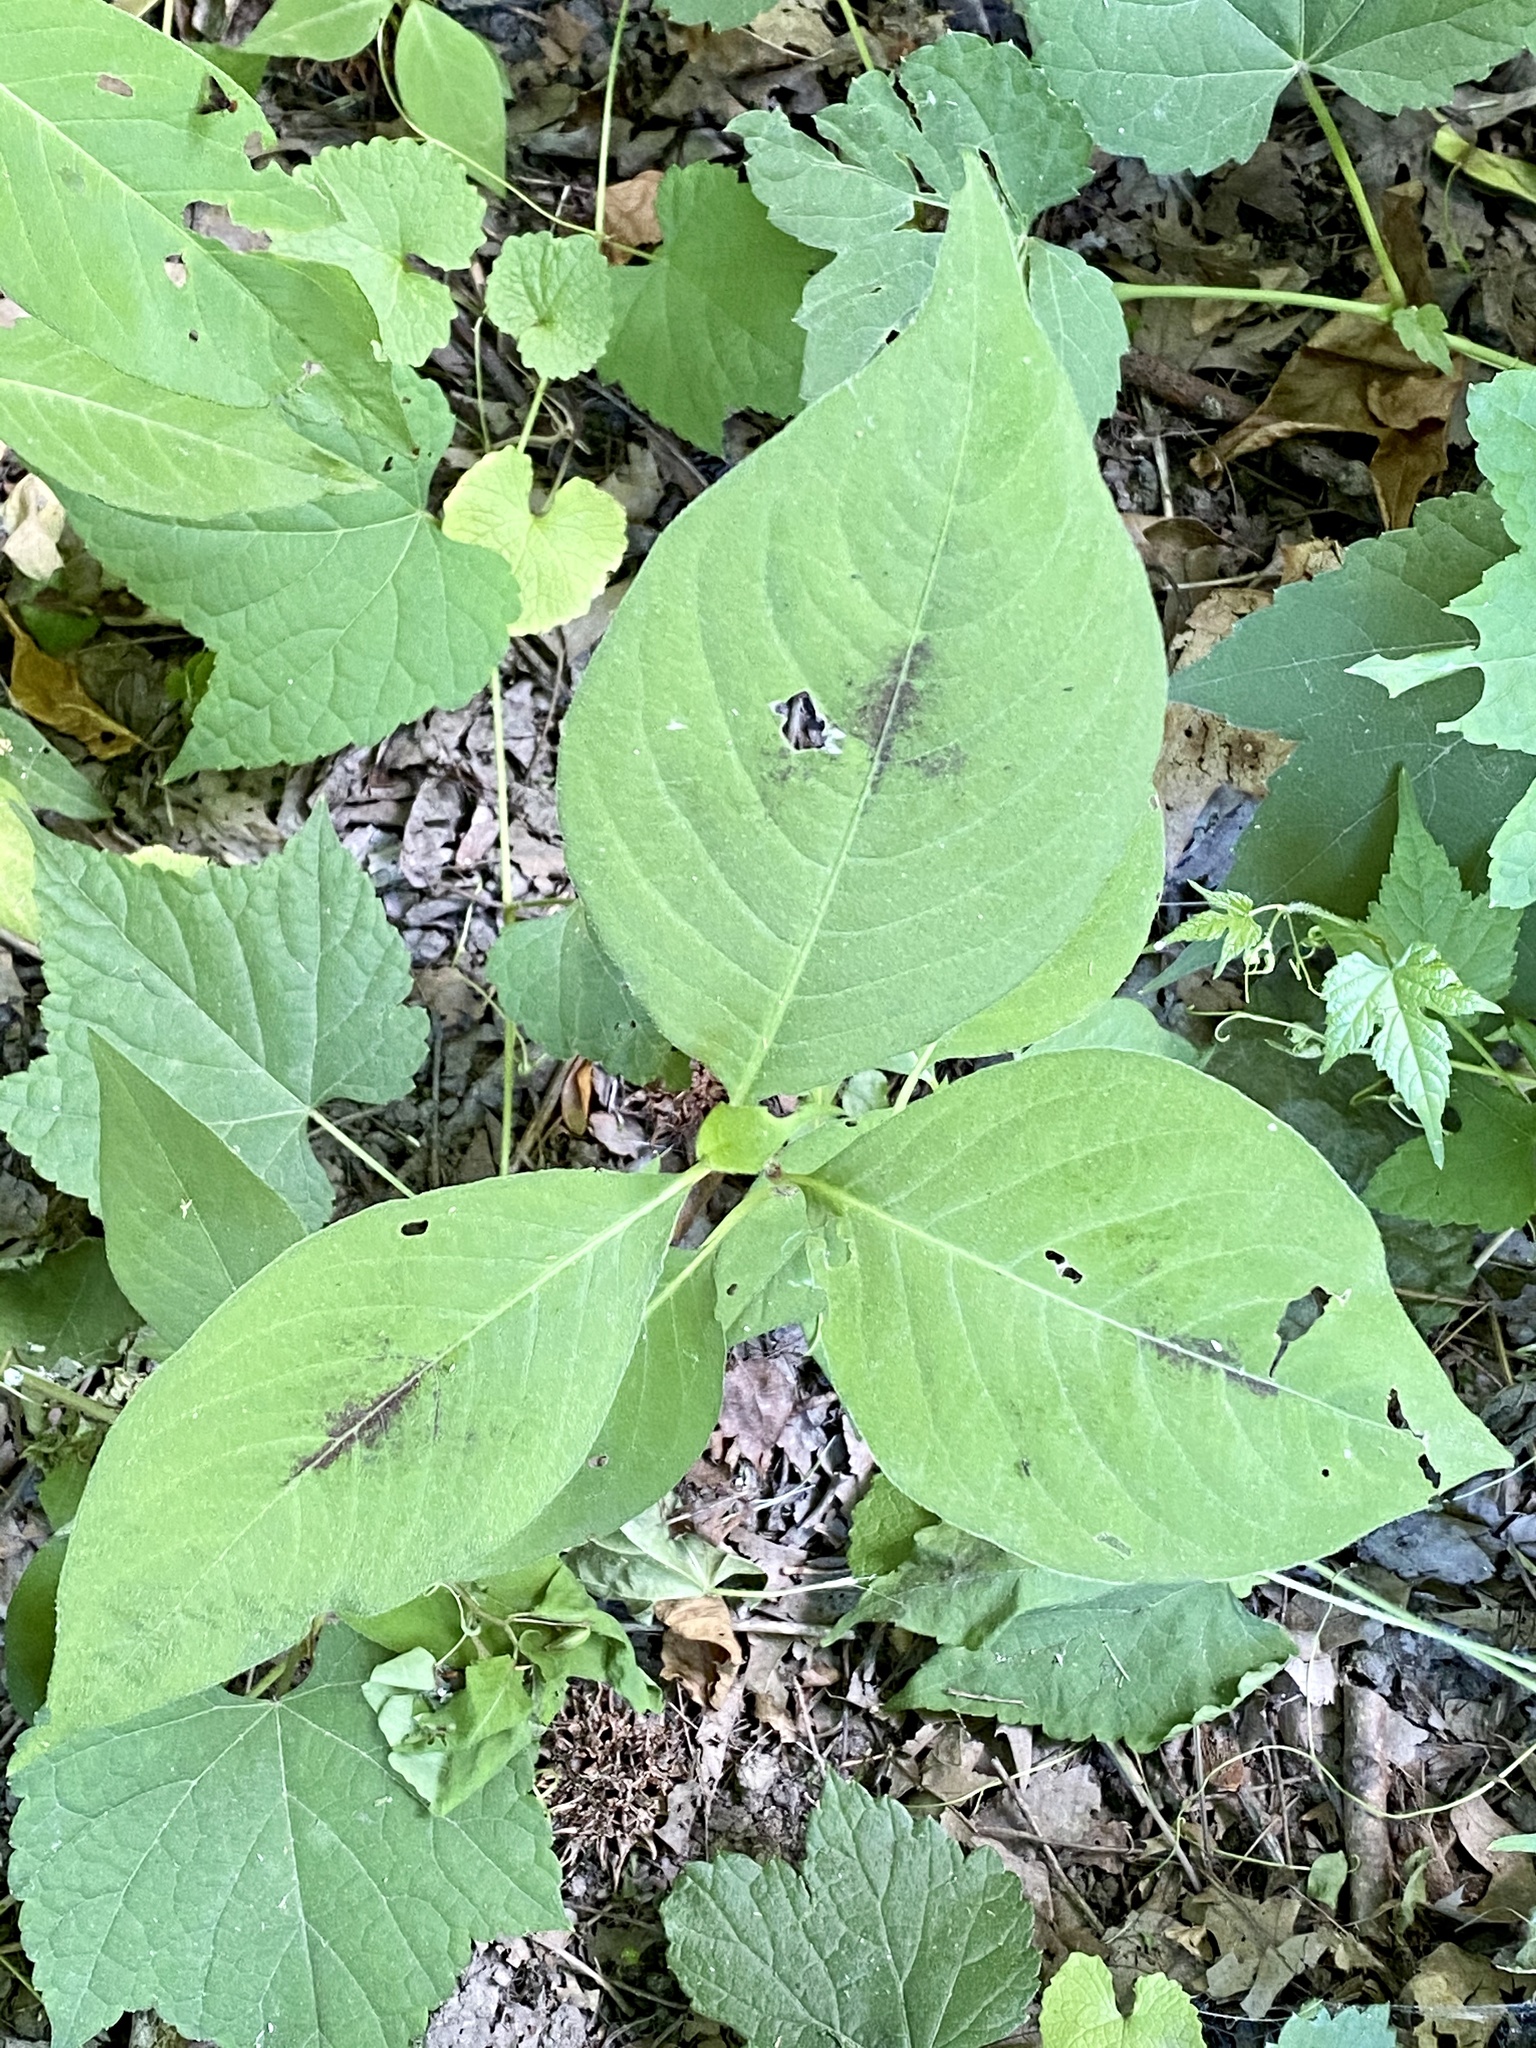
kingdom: Plantae
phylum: Tracheophyta
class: Magnoliopsida
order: Caryophyllales
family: Polygonaceae
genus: Persicaria
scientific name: Persicaria virginiana
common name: Jumpseed
